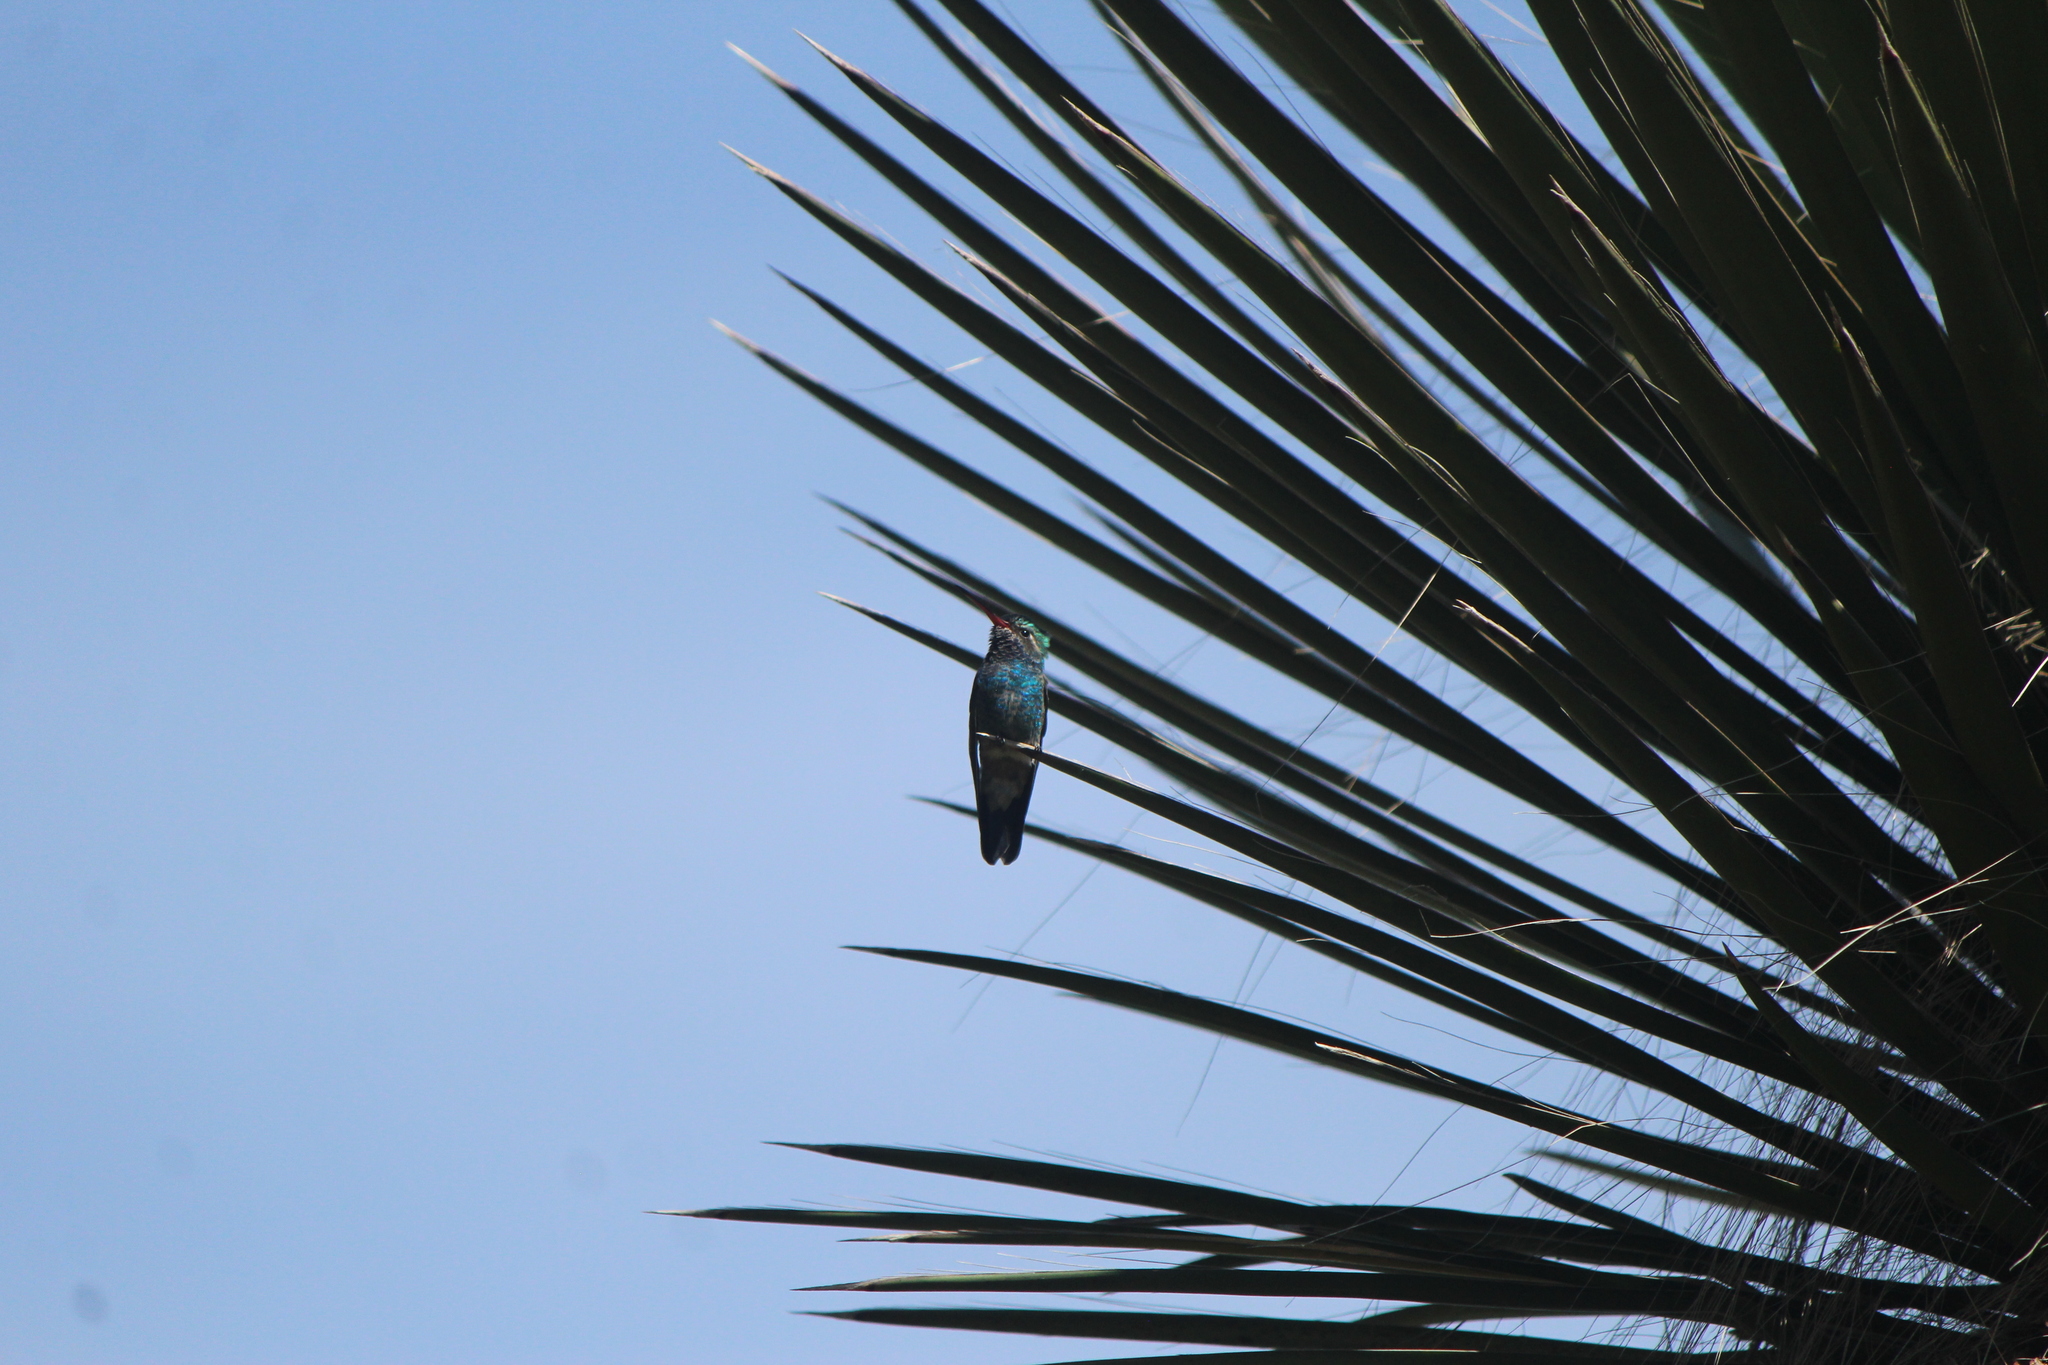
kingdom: Animalia
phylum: Chordata
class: Aves
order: Apodiformes
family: Trochilidae
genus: Cynanthus
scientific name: Cynanthus latirostris
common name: Broad-billed hummingbird
